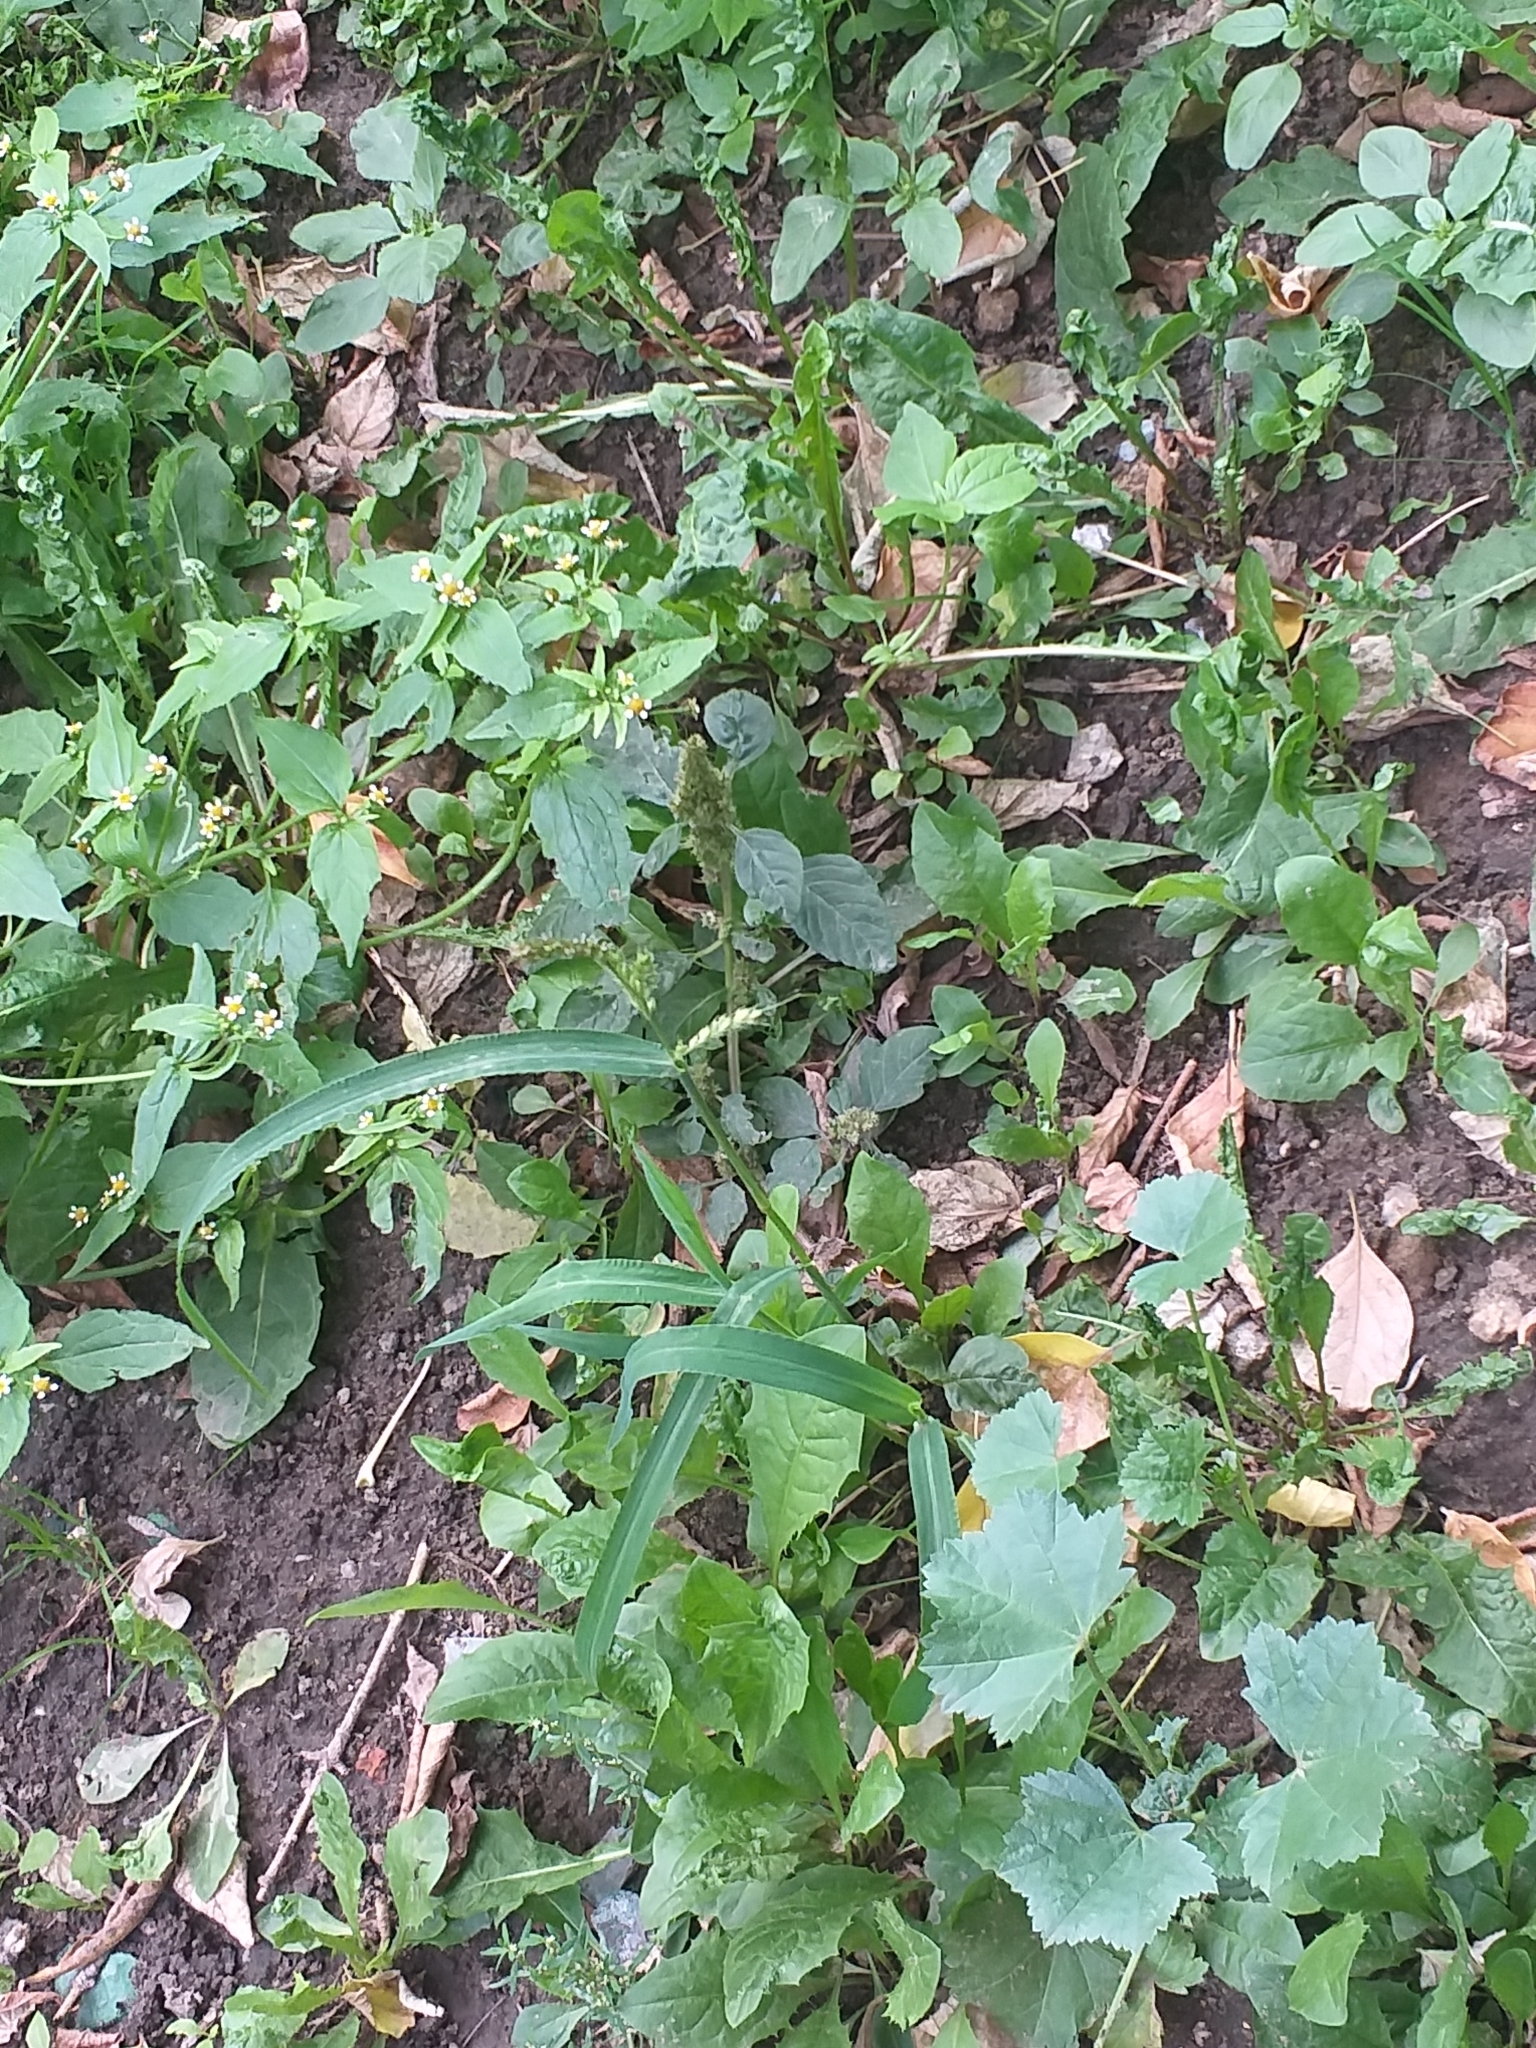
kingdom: Plantae
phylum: Tracheophyta
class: Liliopsida
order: Poales
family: Poaceae
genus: Echinochloa
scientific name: Echinochloa crus-galli
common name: Cockspur
